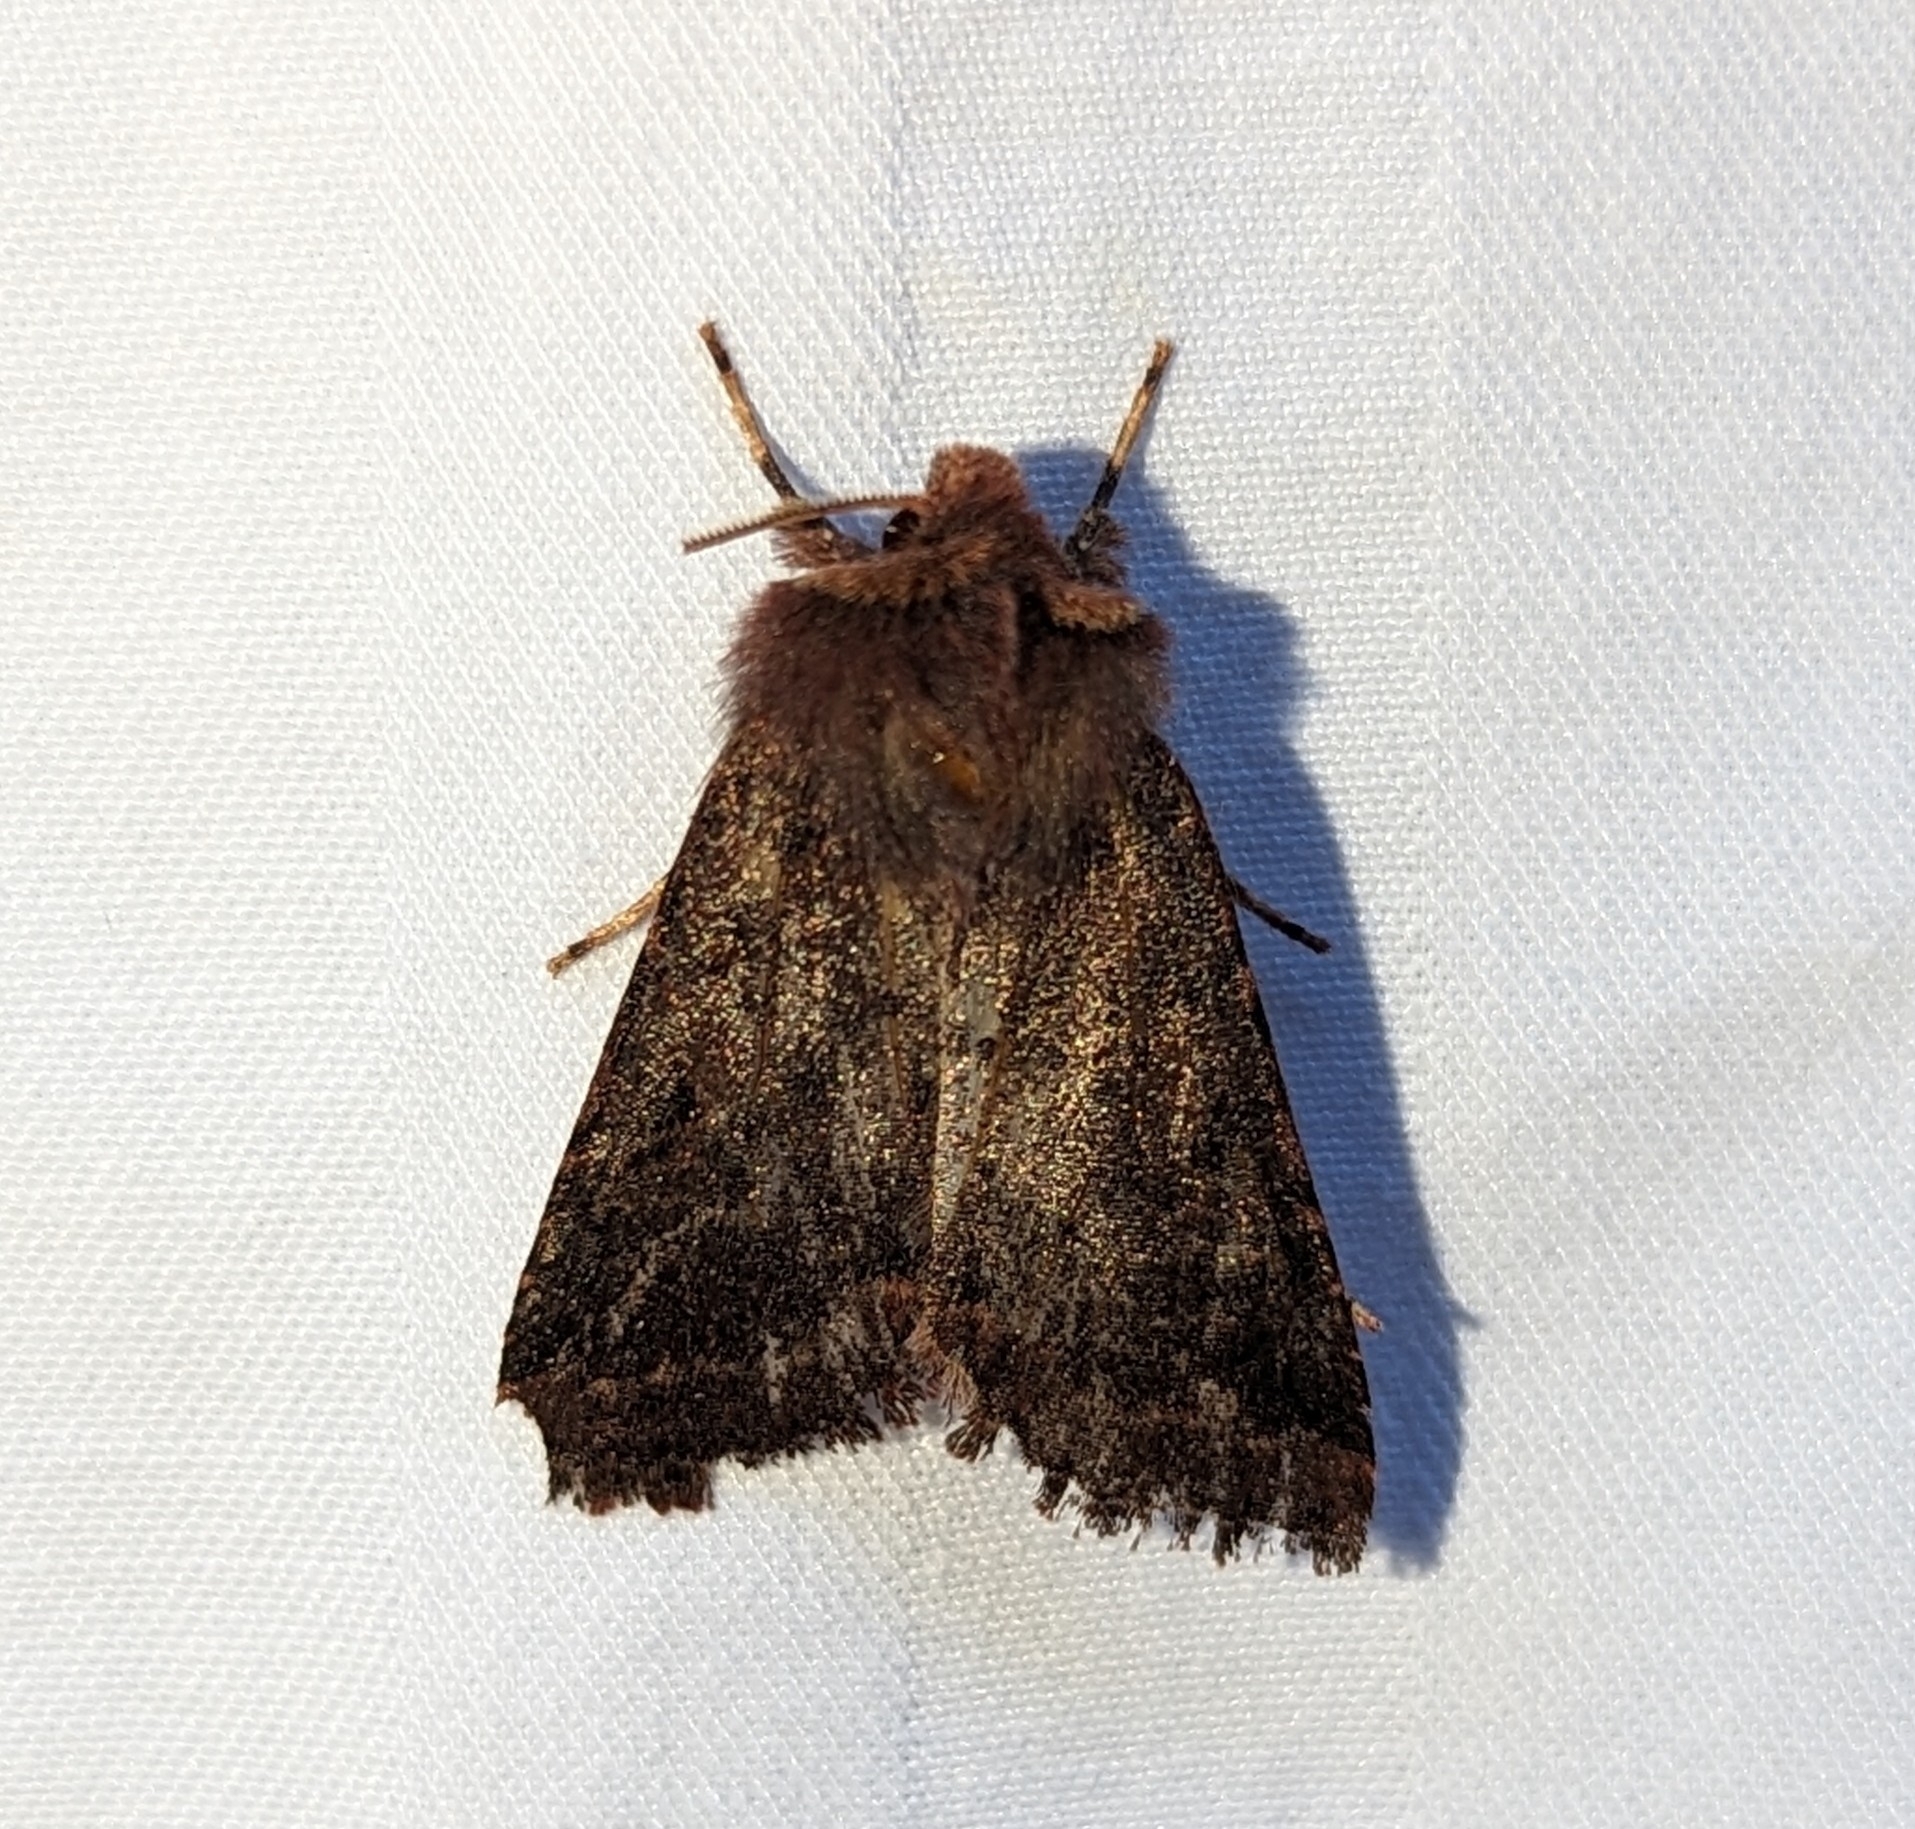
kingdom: Animalia
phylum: Arthropoda
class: Insecta
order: Lepidoptera
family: Noctuidae
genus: Orthosia
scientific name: Orthosia praeses
